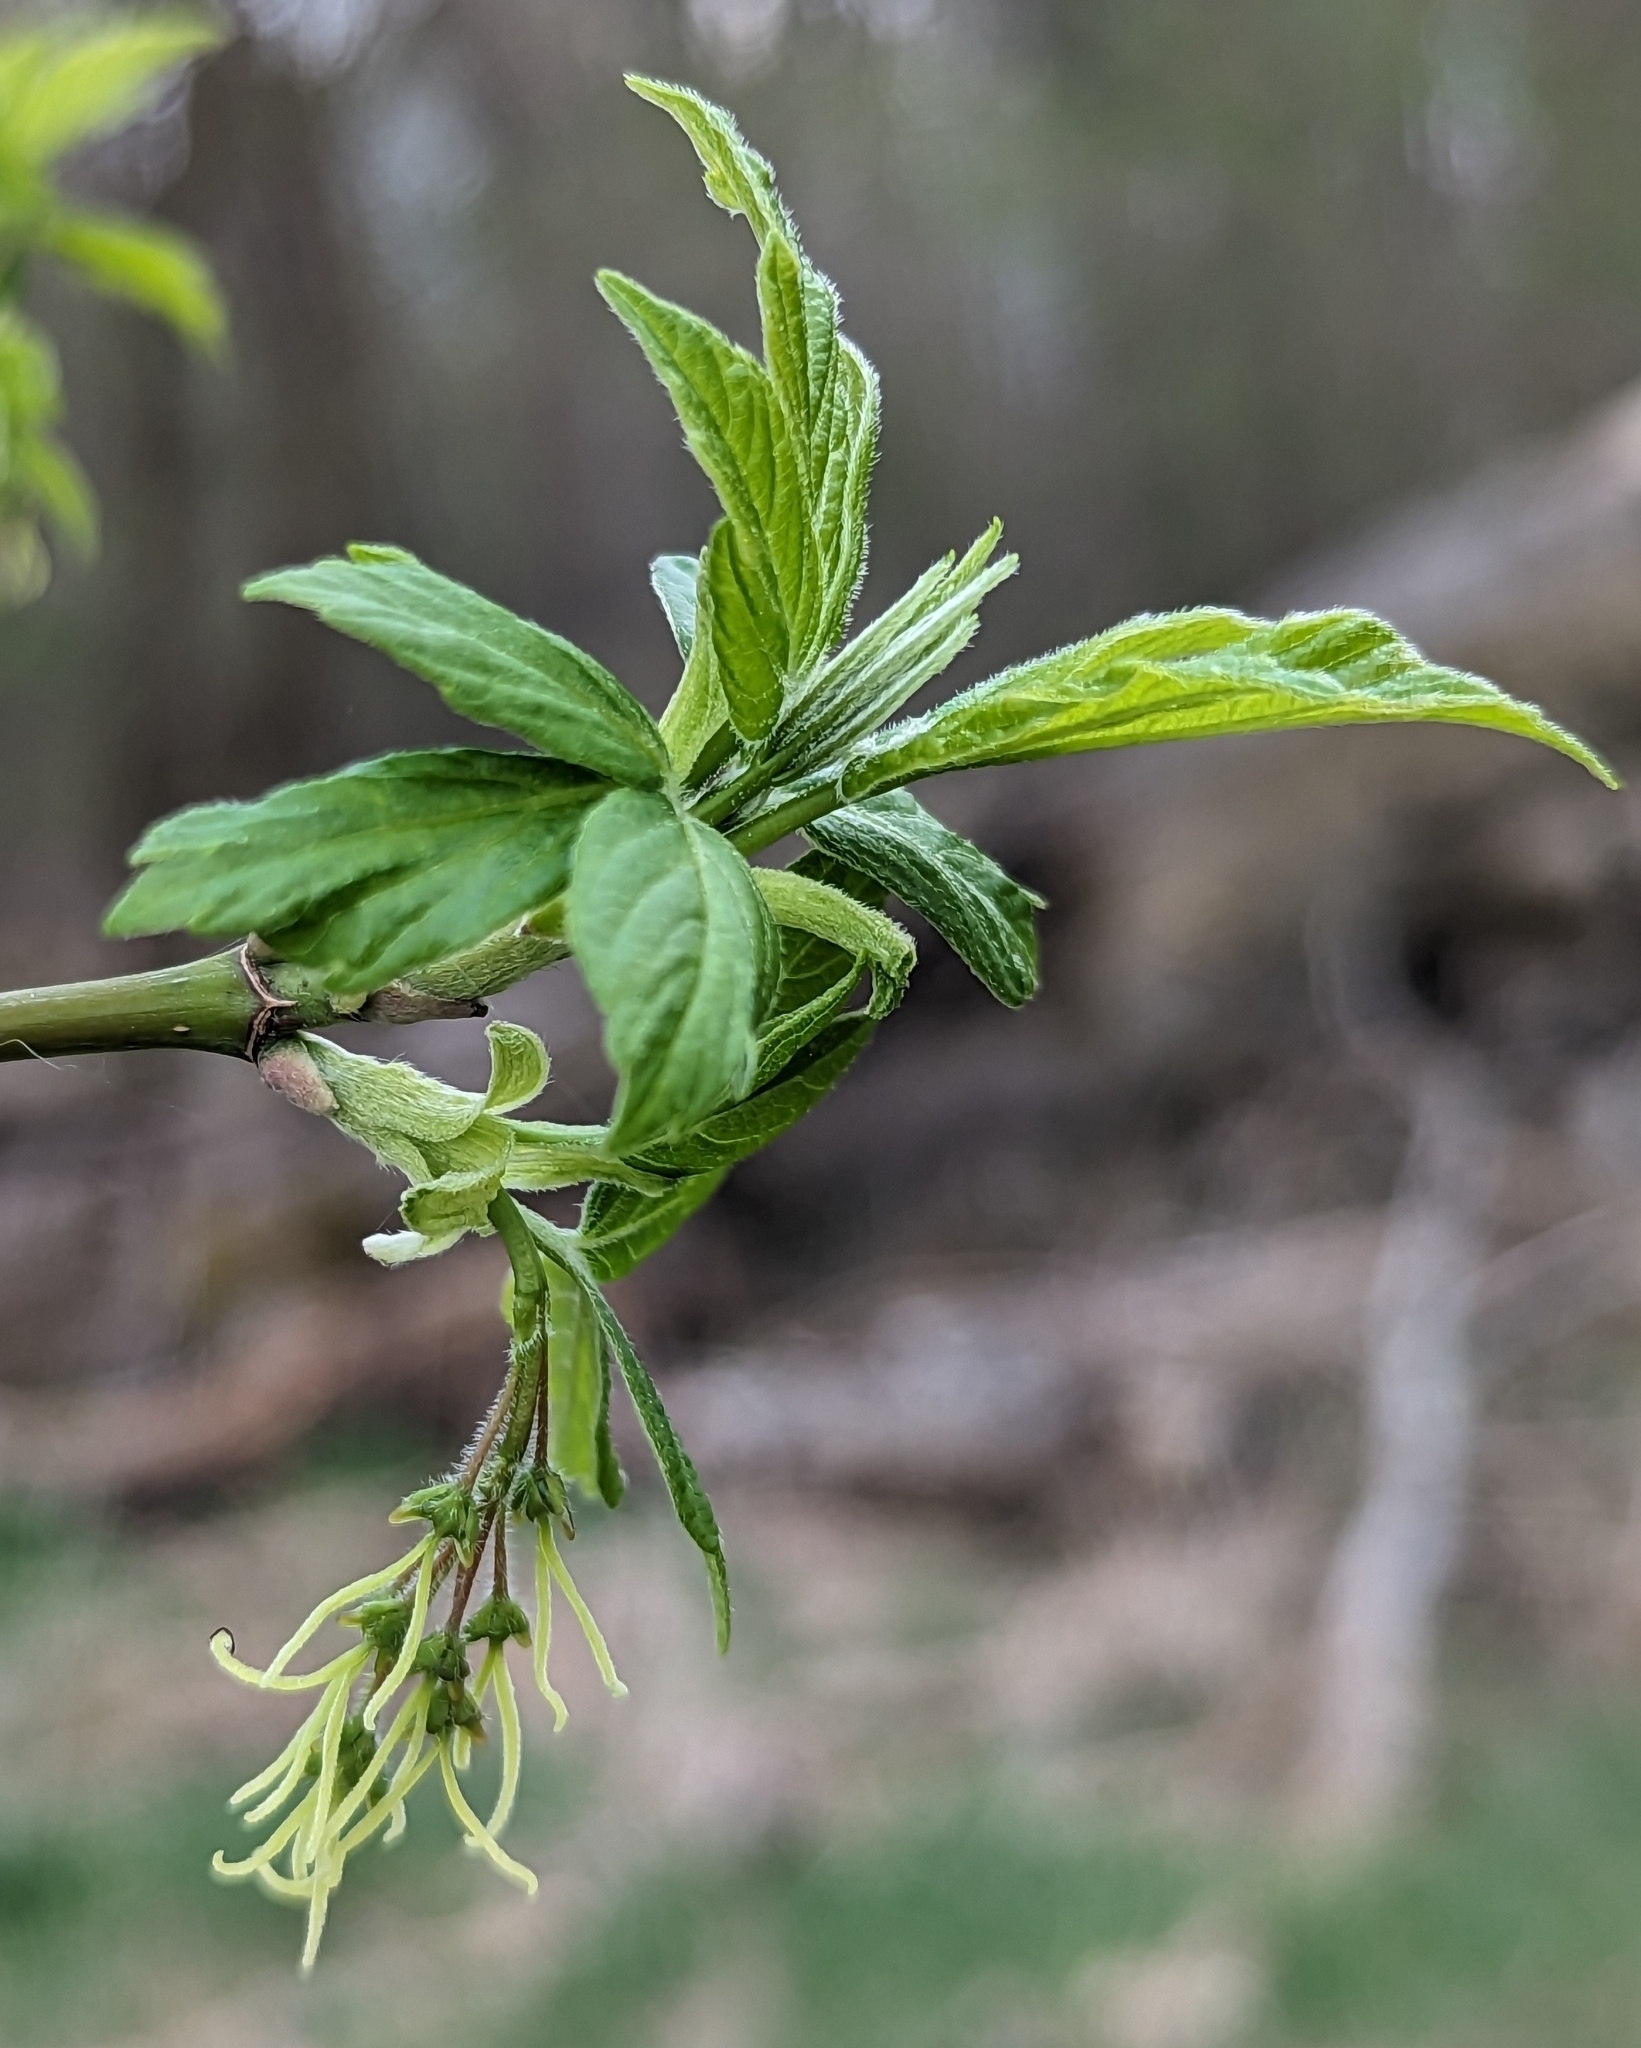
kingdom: Plantae
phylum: Tracheophyta
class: Magnoliopsida
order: Sapindales
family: Sapindaceae
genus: Acer
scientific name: Acer negundo
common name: Ashleaf maple
